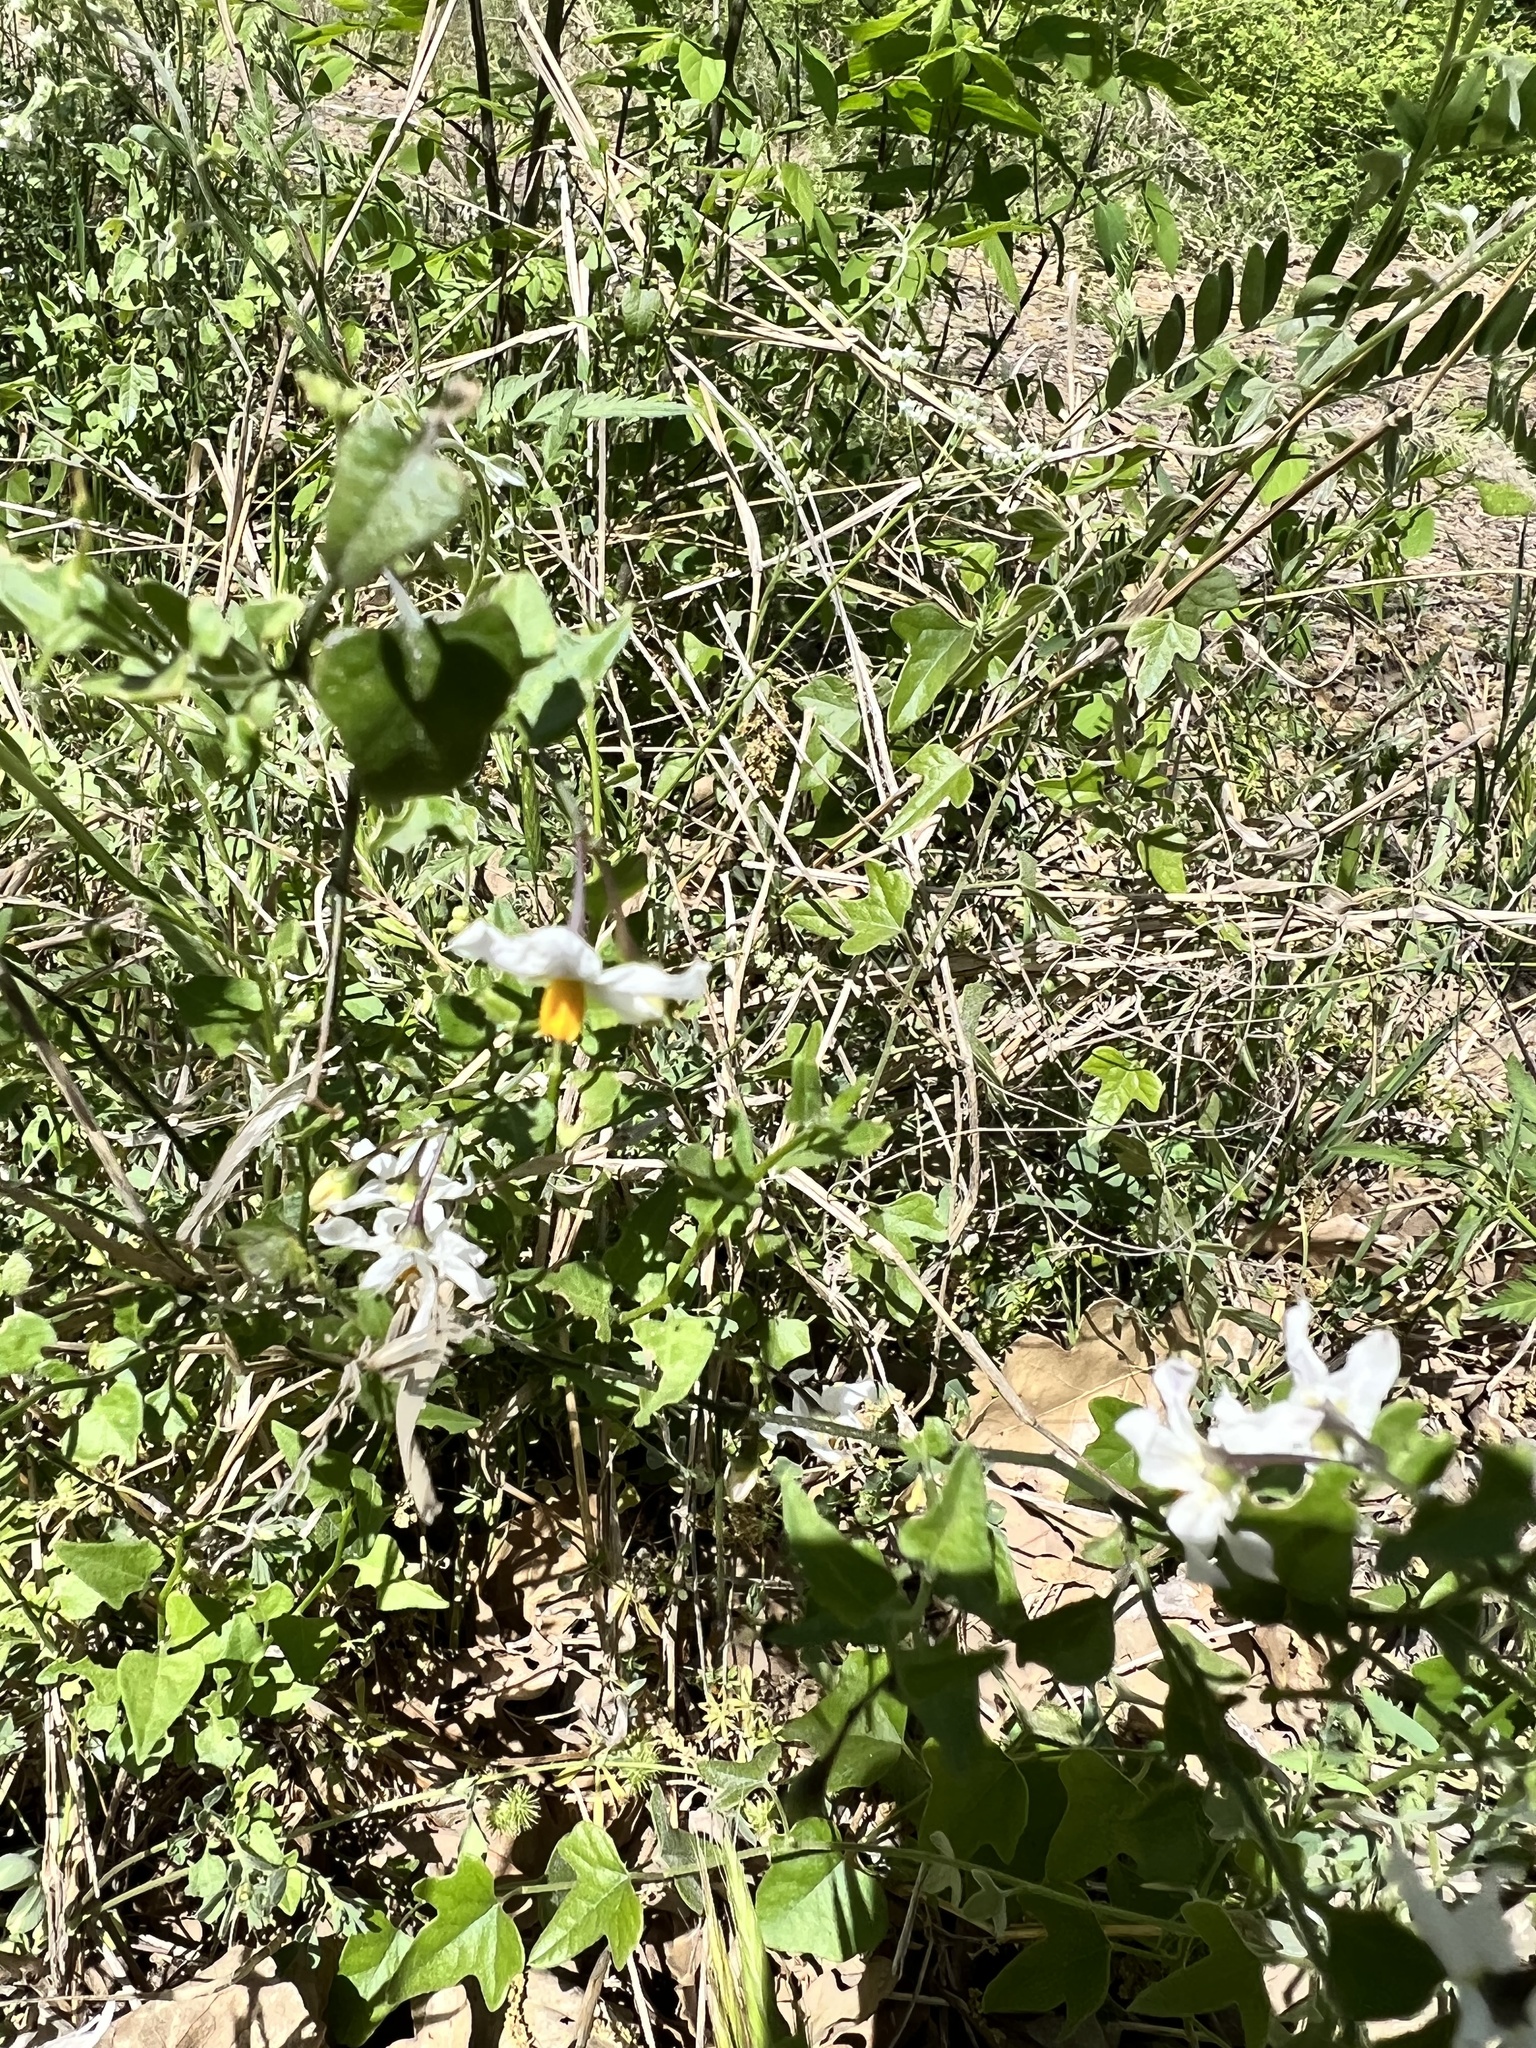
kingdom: Plantae
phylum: Tracheophyta
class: Magnoliopsida
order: Solanales
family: Solanaceae
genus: Solanum
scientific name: Solanum triquetrum
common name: Texas nightshade
